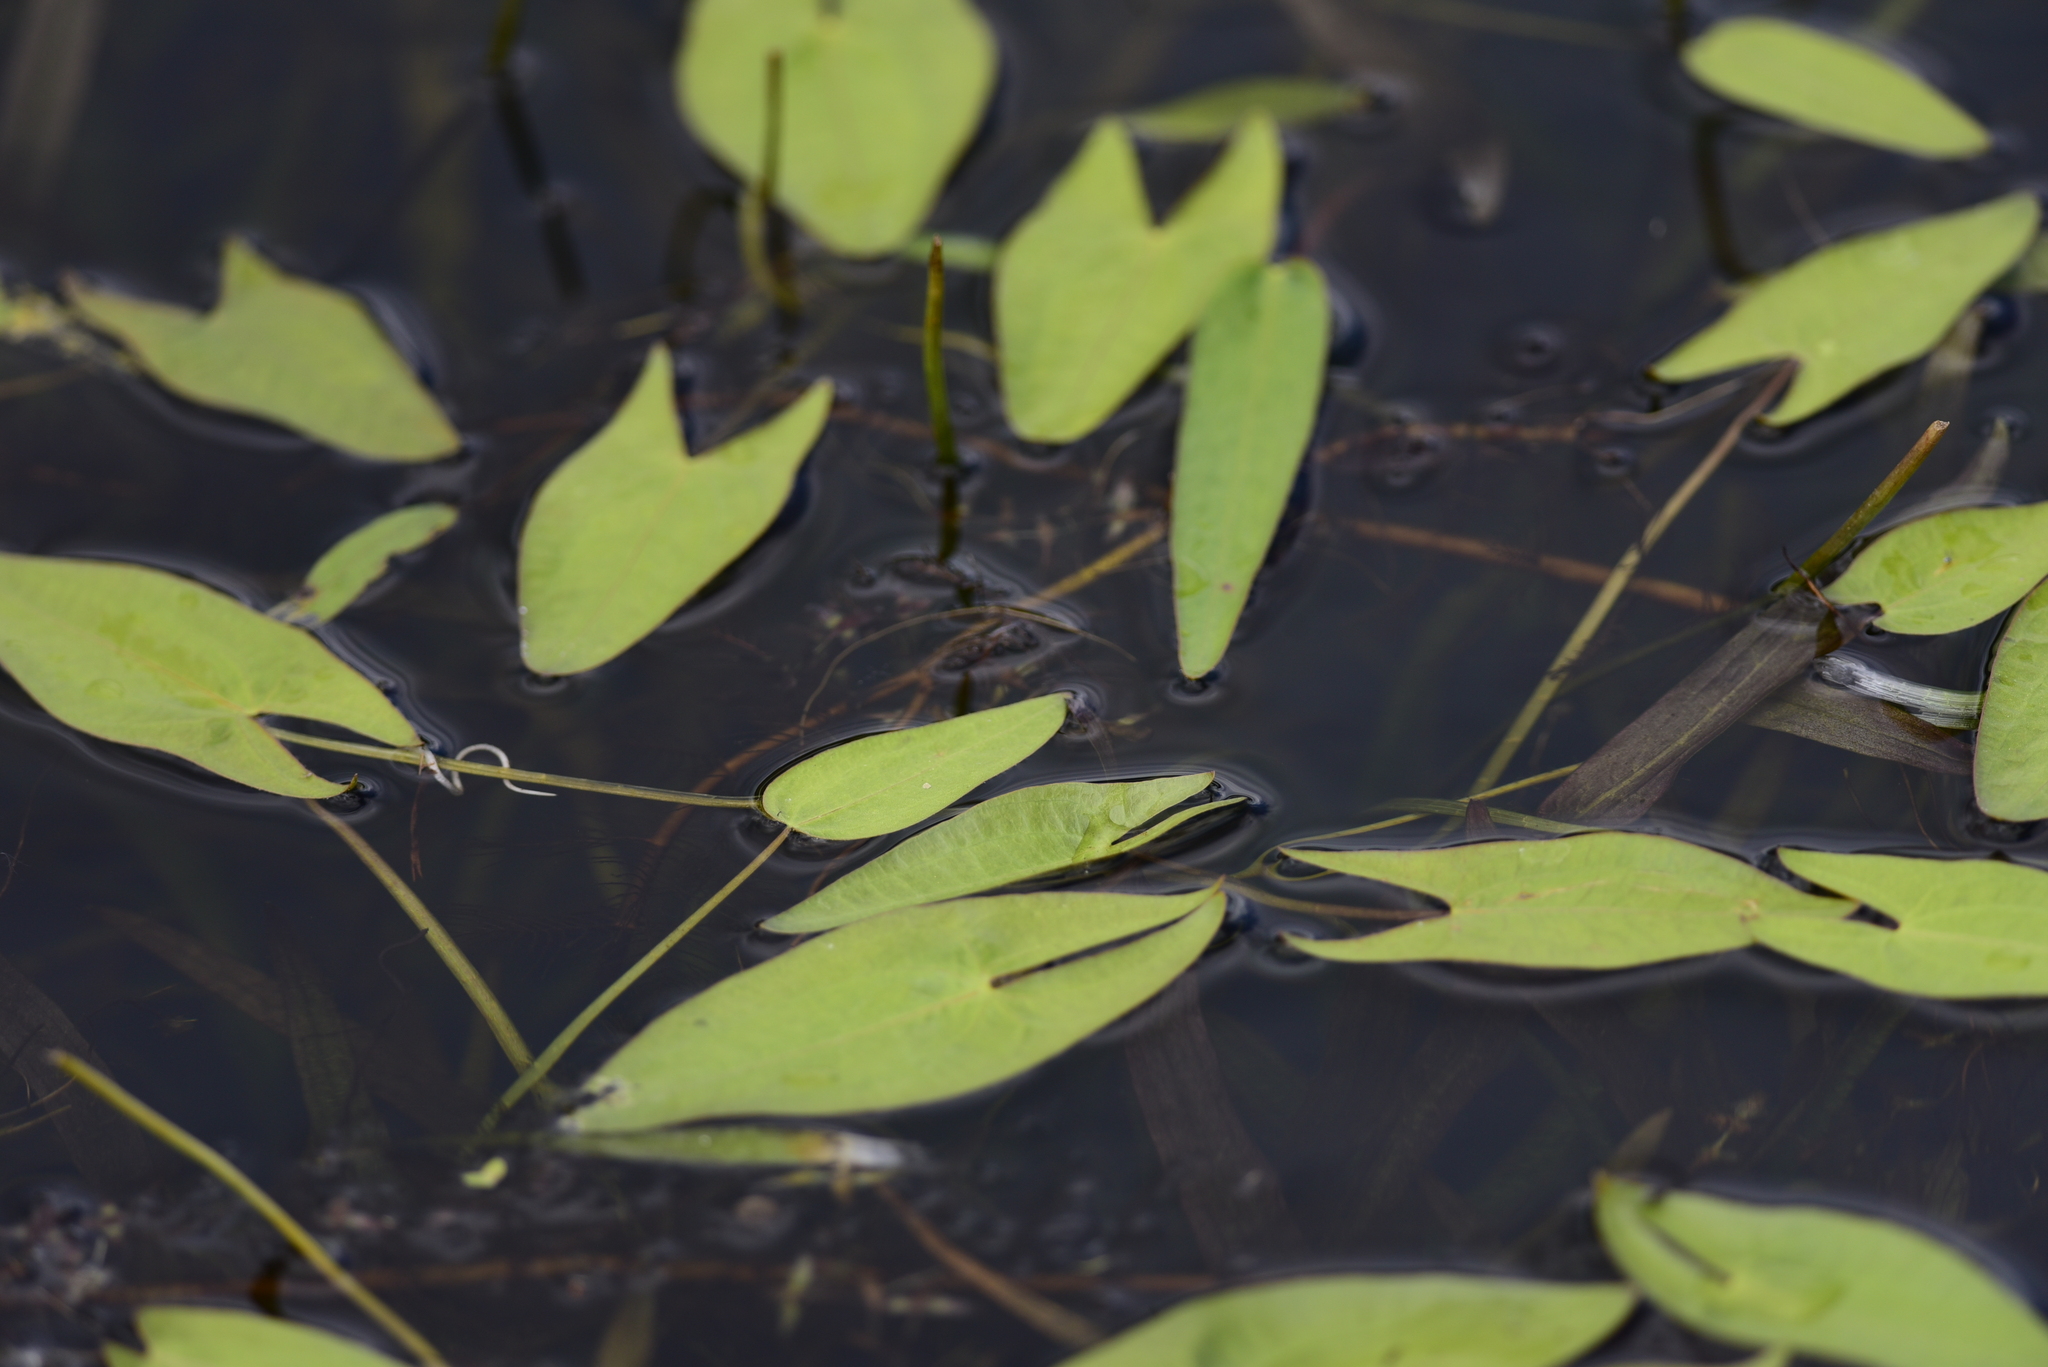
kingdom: Plantae
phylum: Tracheophyta
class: Liliopsida
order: Alismatales
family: Alismataceae
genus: Sagittaria
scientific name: Sagittaria cuneata
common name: Northern arrowhead
